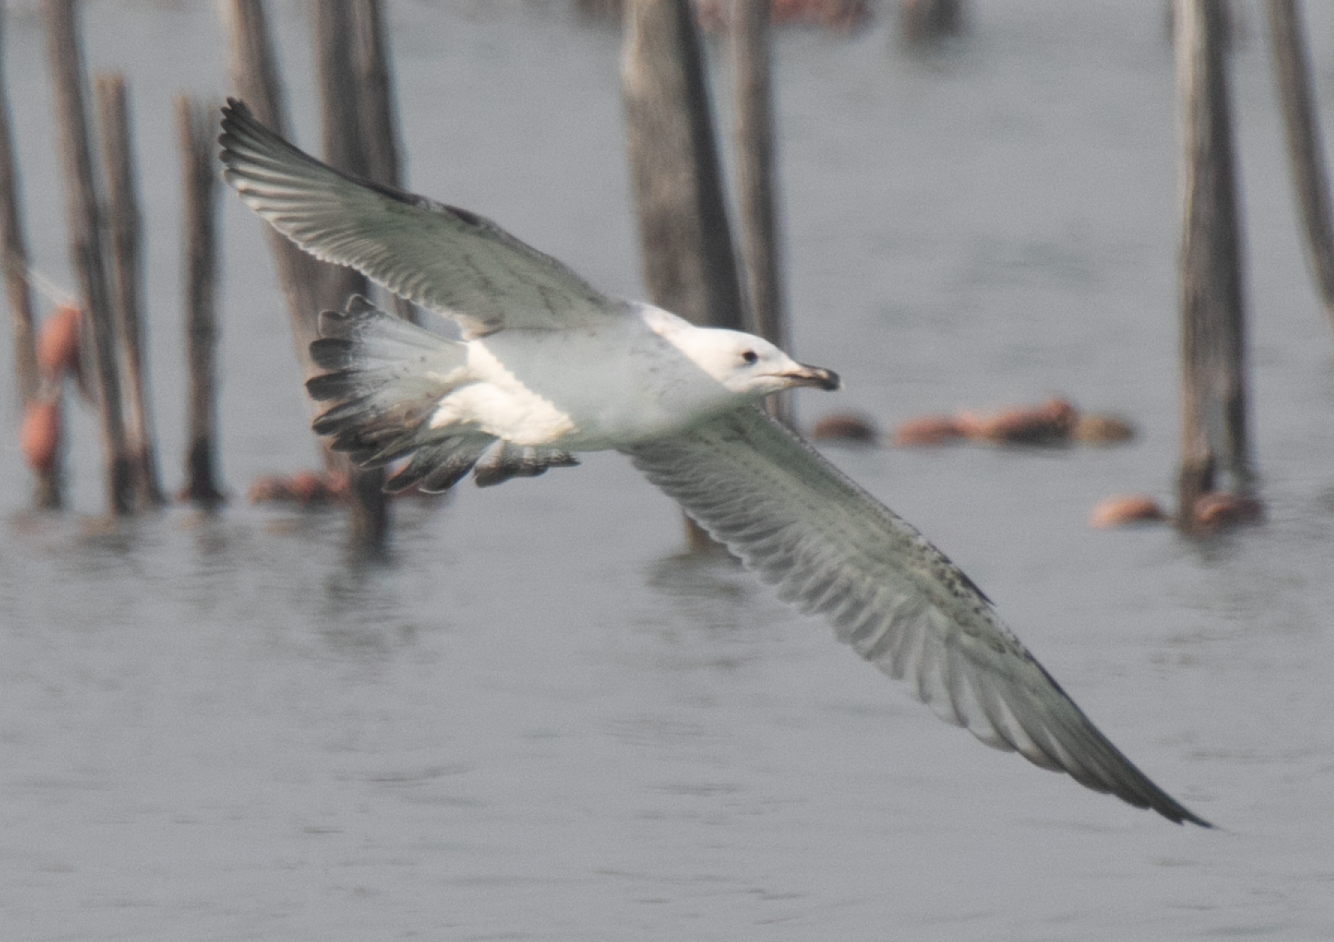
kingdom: Animalia
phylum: Chordata
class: Aves
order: Charadriiformes
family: Laridae
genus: Larus
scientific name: Larus michahellis
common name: Yellow-legged gull
